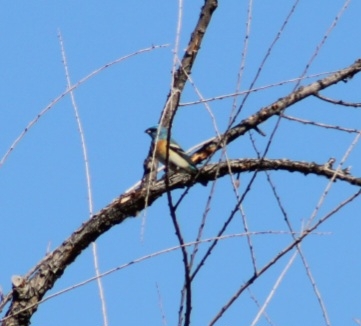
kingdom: Animalia
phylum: Chordata
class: Aves
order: Passeriformes
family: Cardinalidae
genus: Passerina
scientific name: Passerina amoena
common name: Lazuli bunting
